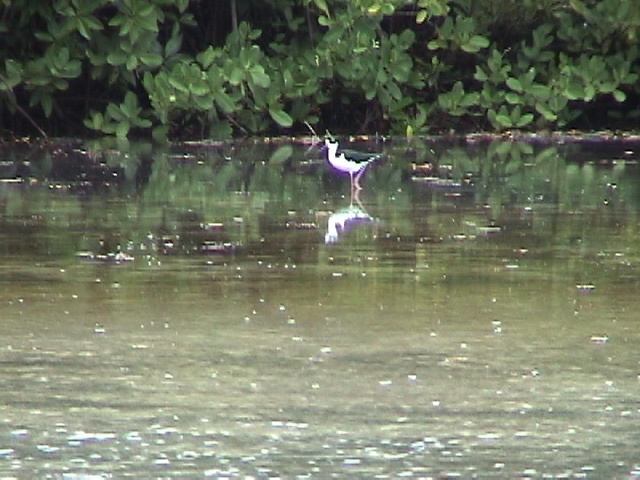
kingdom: Animalia
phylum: Chordata
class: Aves
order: Charadriiformes
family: Recurvirostridae
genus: Himantopus
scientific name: Himantopus mexicanus
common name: Black-necked stilt
